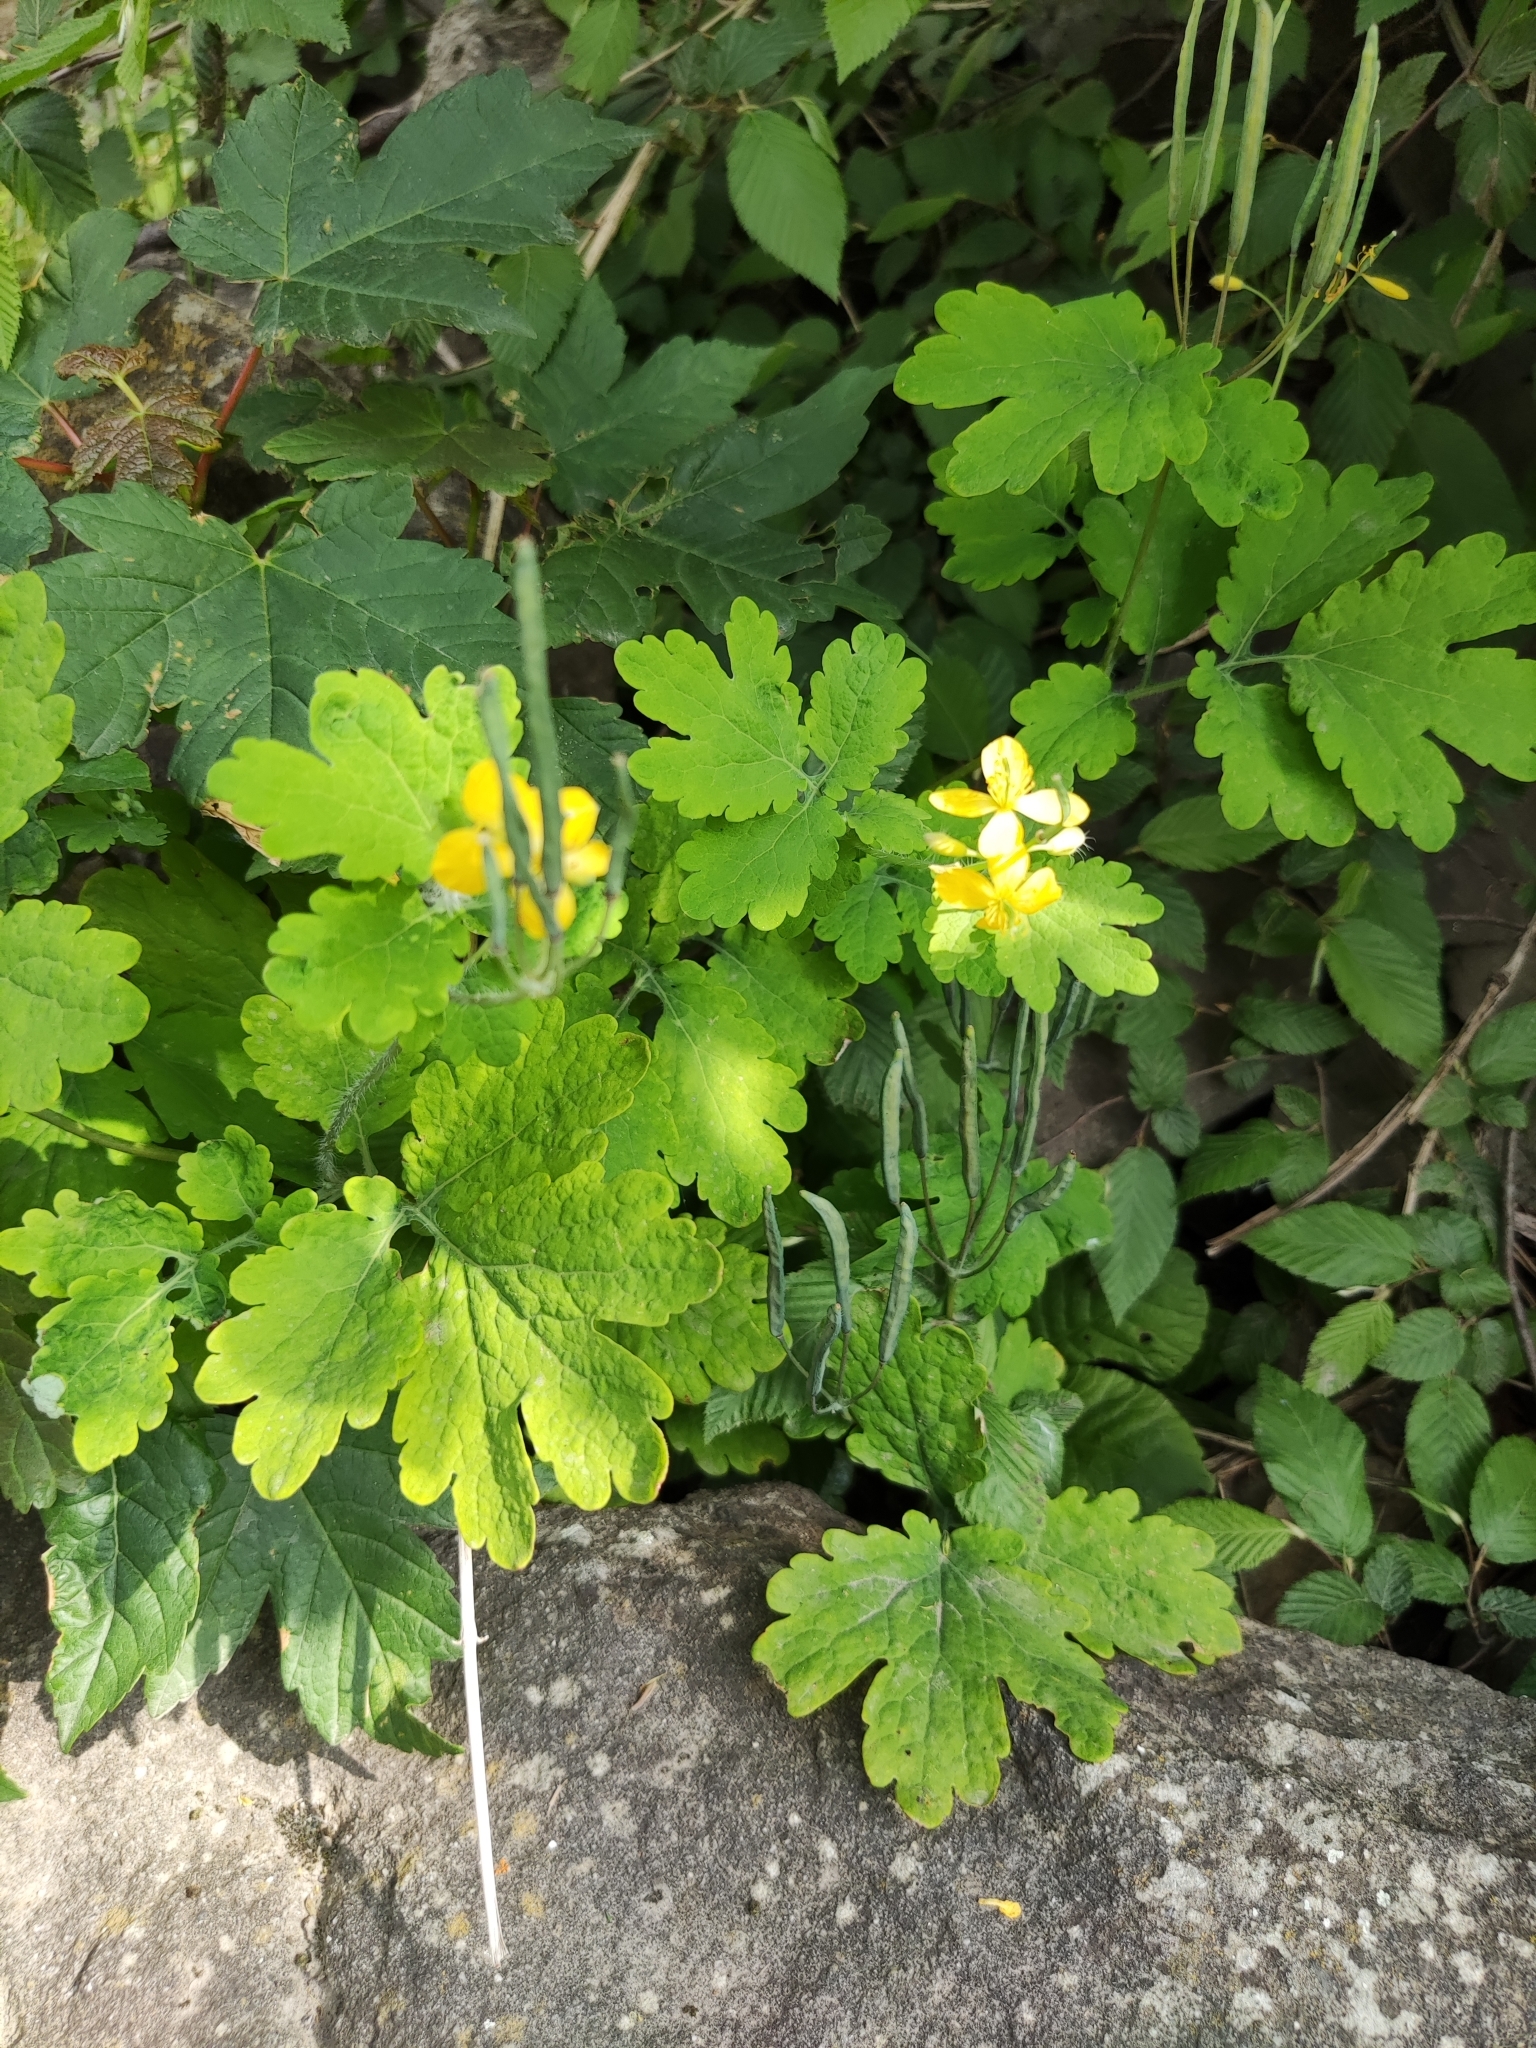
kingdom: Plantae
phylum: Tracheophyta
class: Magnoliopsida
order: Ranunculales
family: Papaveraceae
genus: Chelidonium
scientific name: Chelidonium majus
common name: Greater celandine
